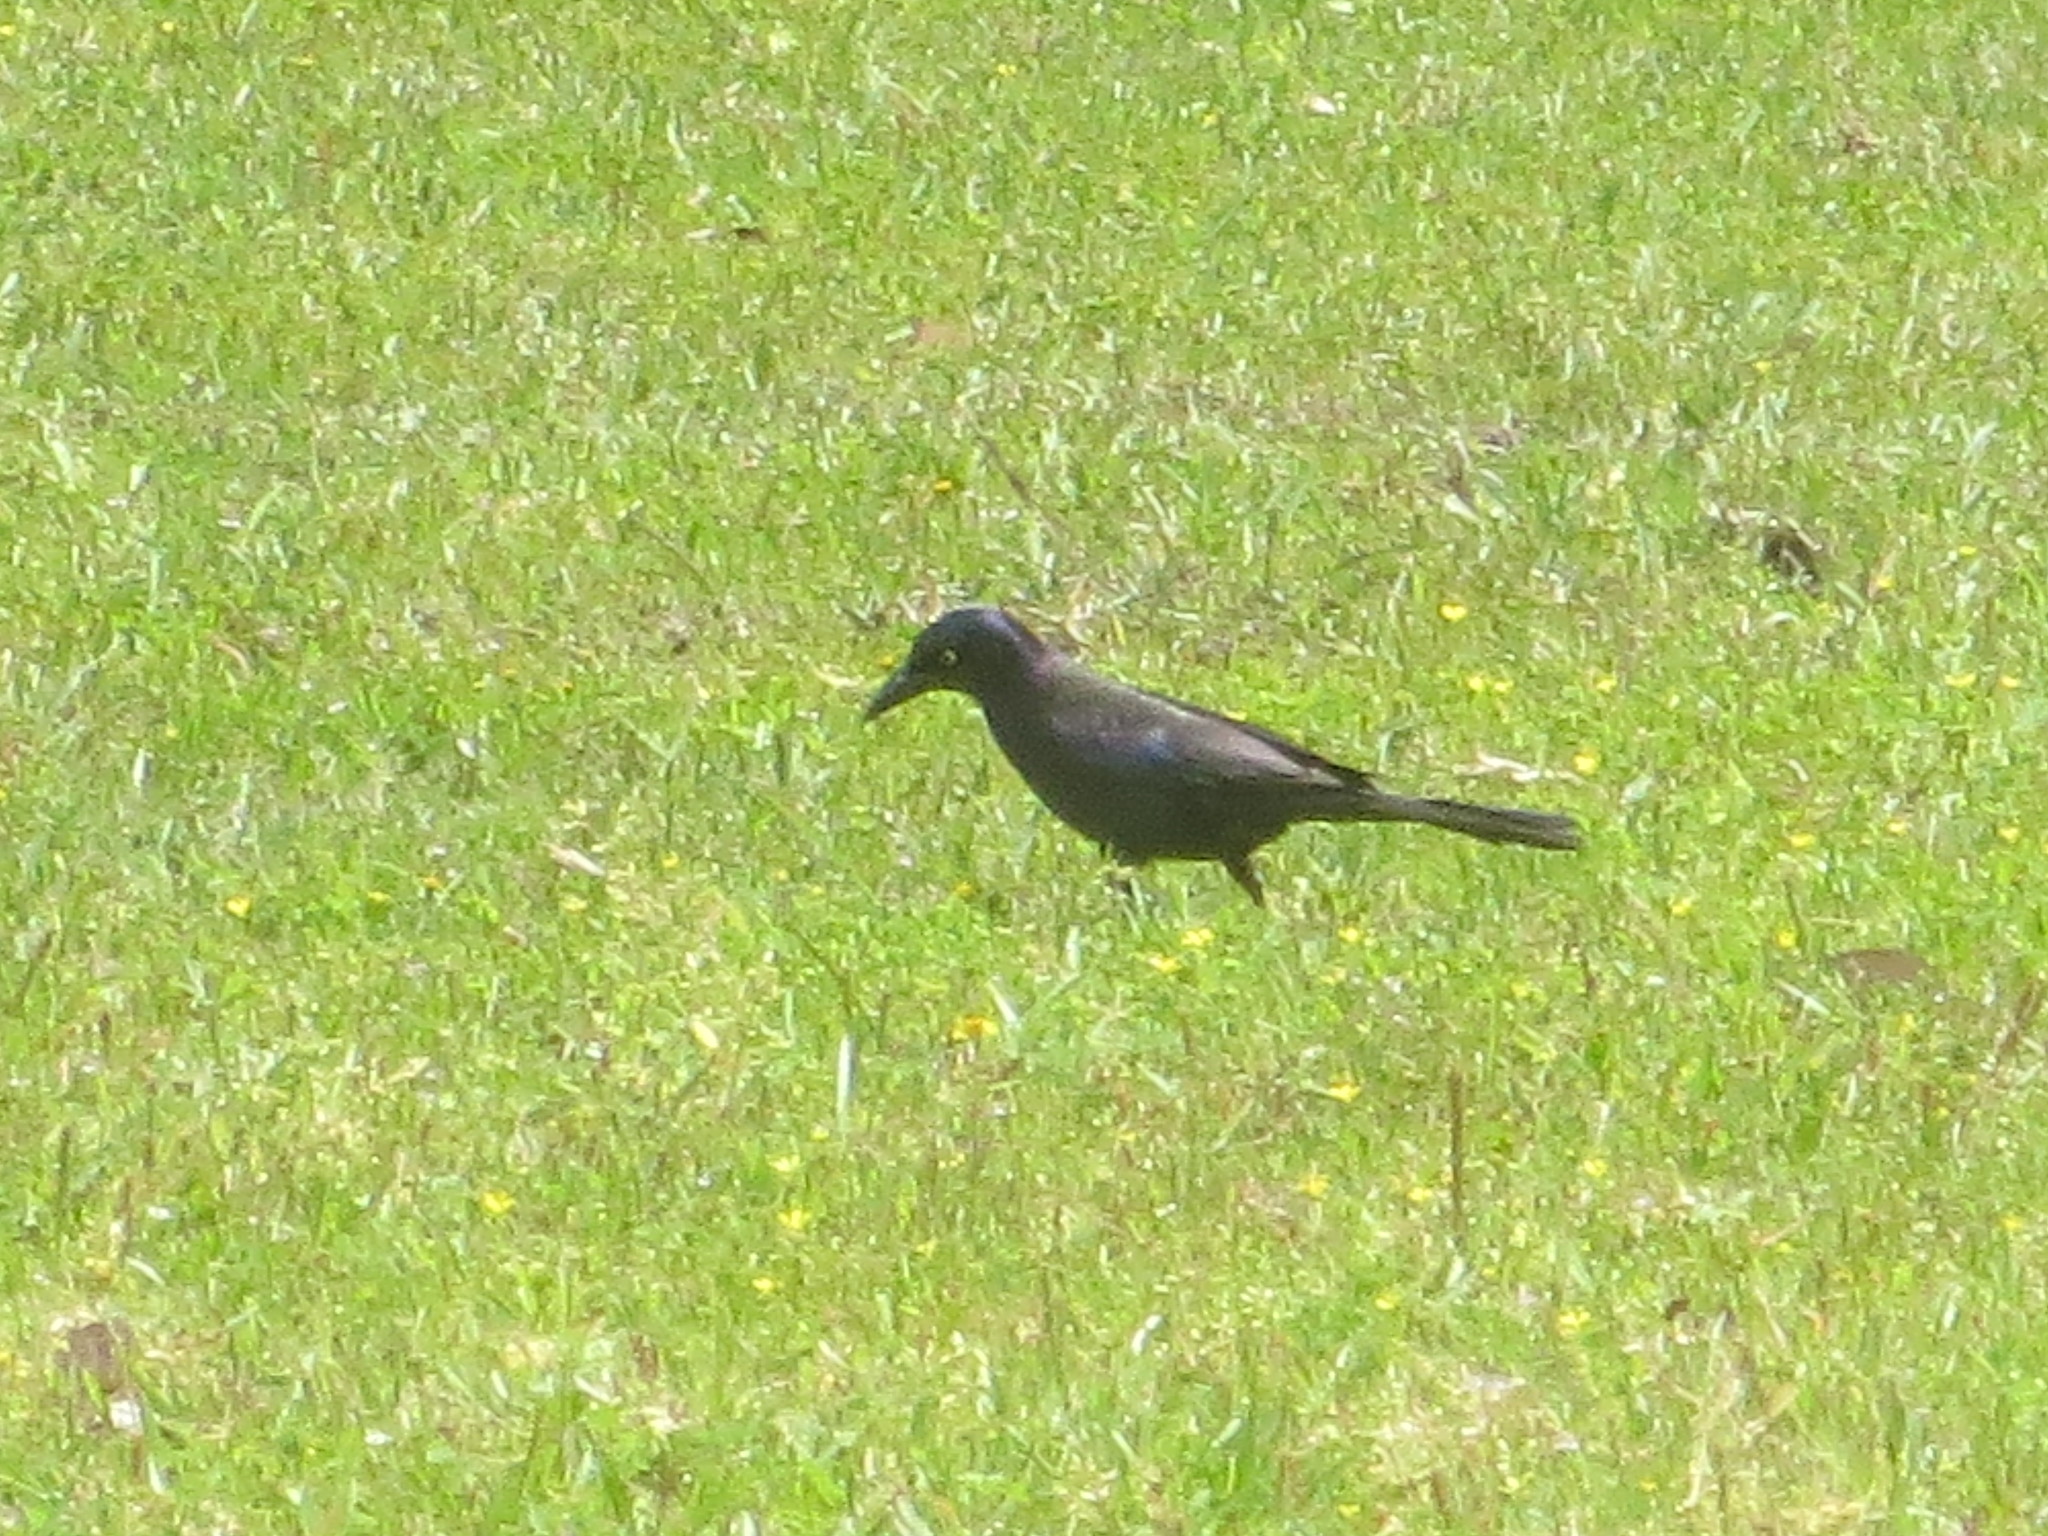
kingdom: Animalia
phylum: Chordata
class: Aves
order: Passeriformes
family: Icteridae
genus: Quiscalus
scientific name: Quiscalus quiscula
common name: Common grackle
